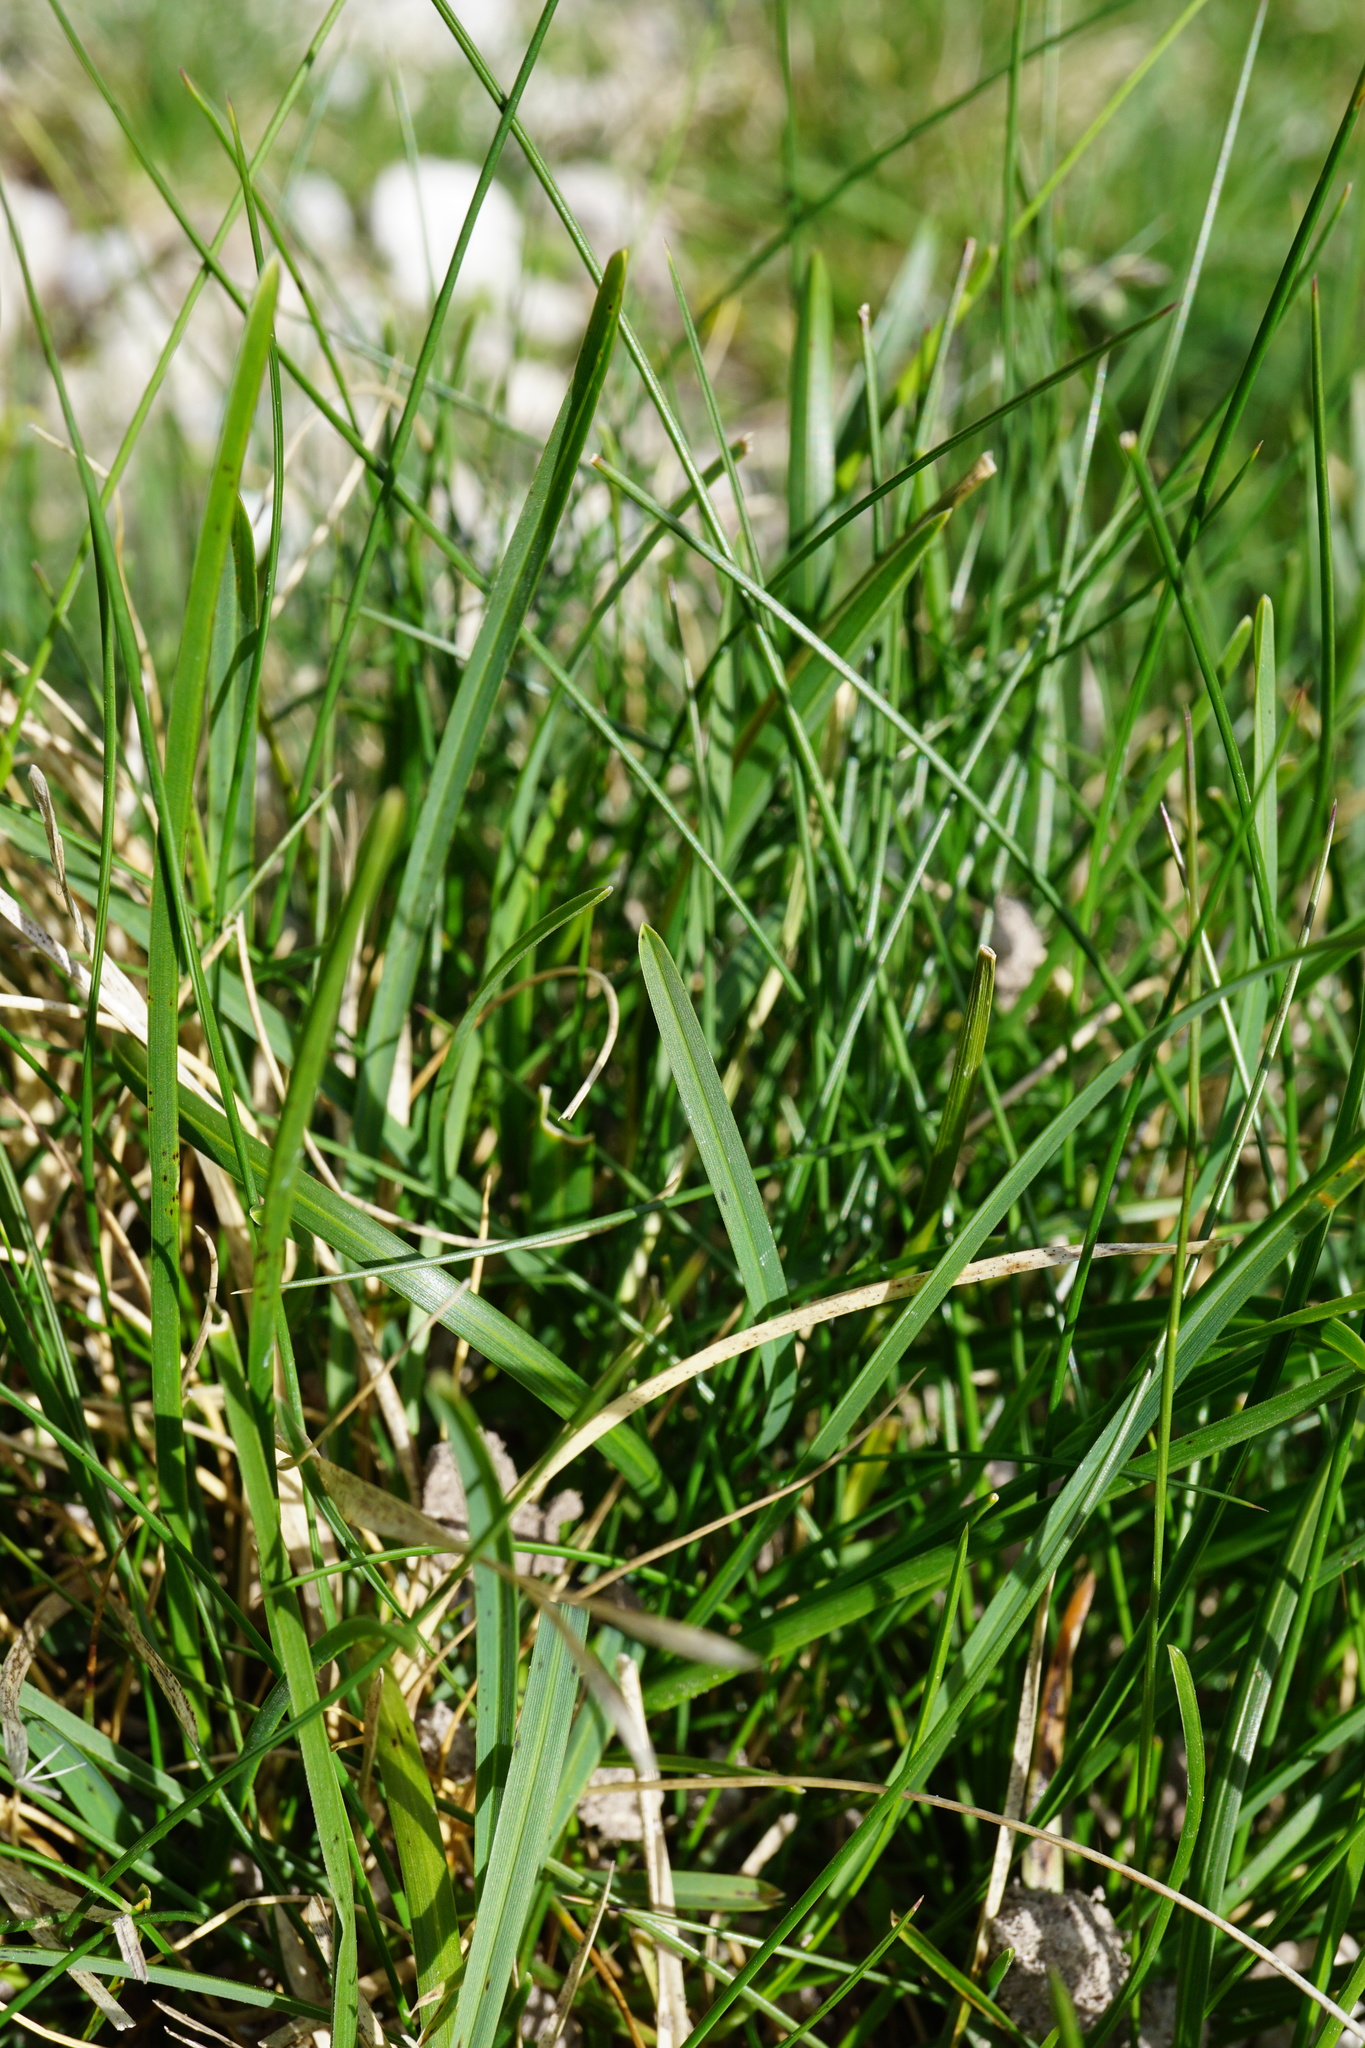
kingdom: Plantae
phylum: Tracheophyta
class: Liliopsida
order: Poales
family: Poaceae
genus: Sesleria
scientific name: Sesleria albicans
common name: Blue moor-grass
